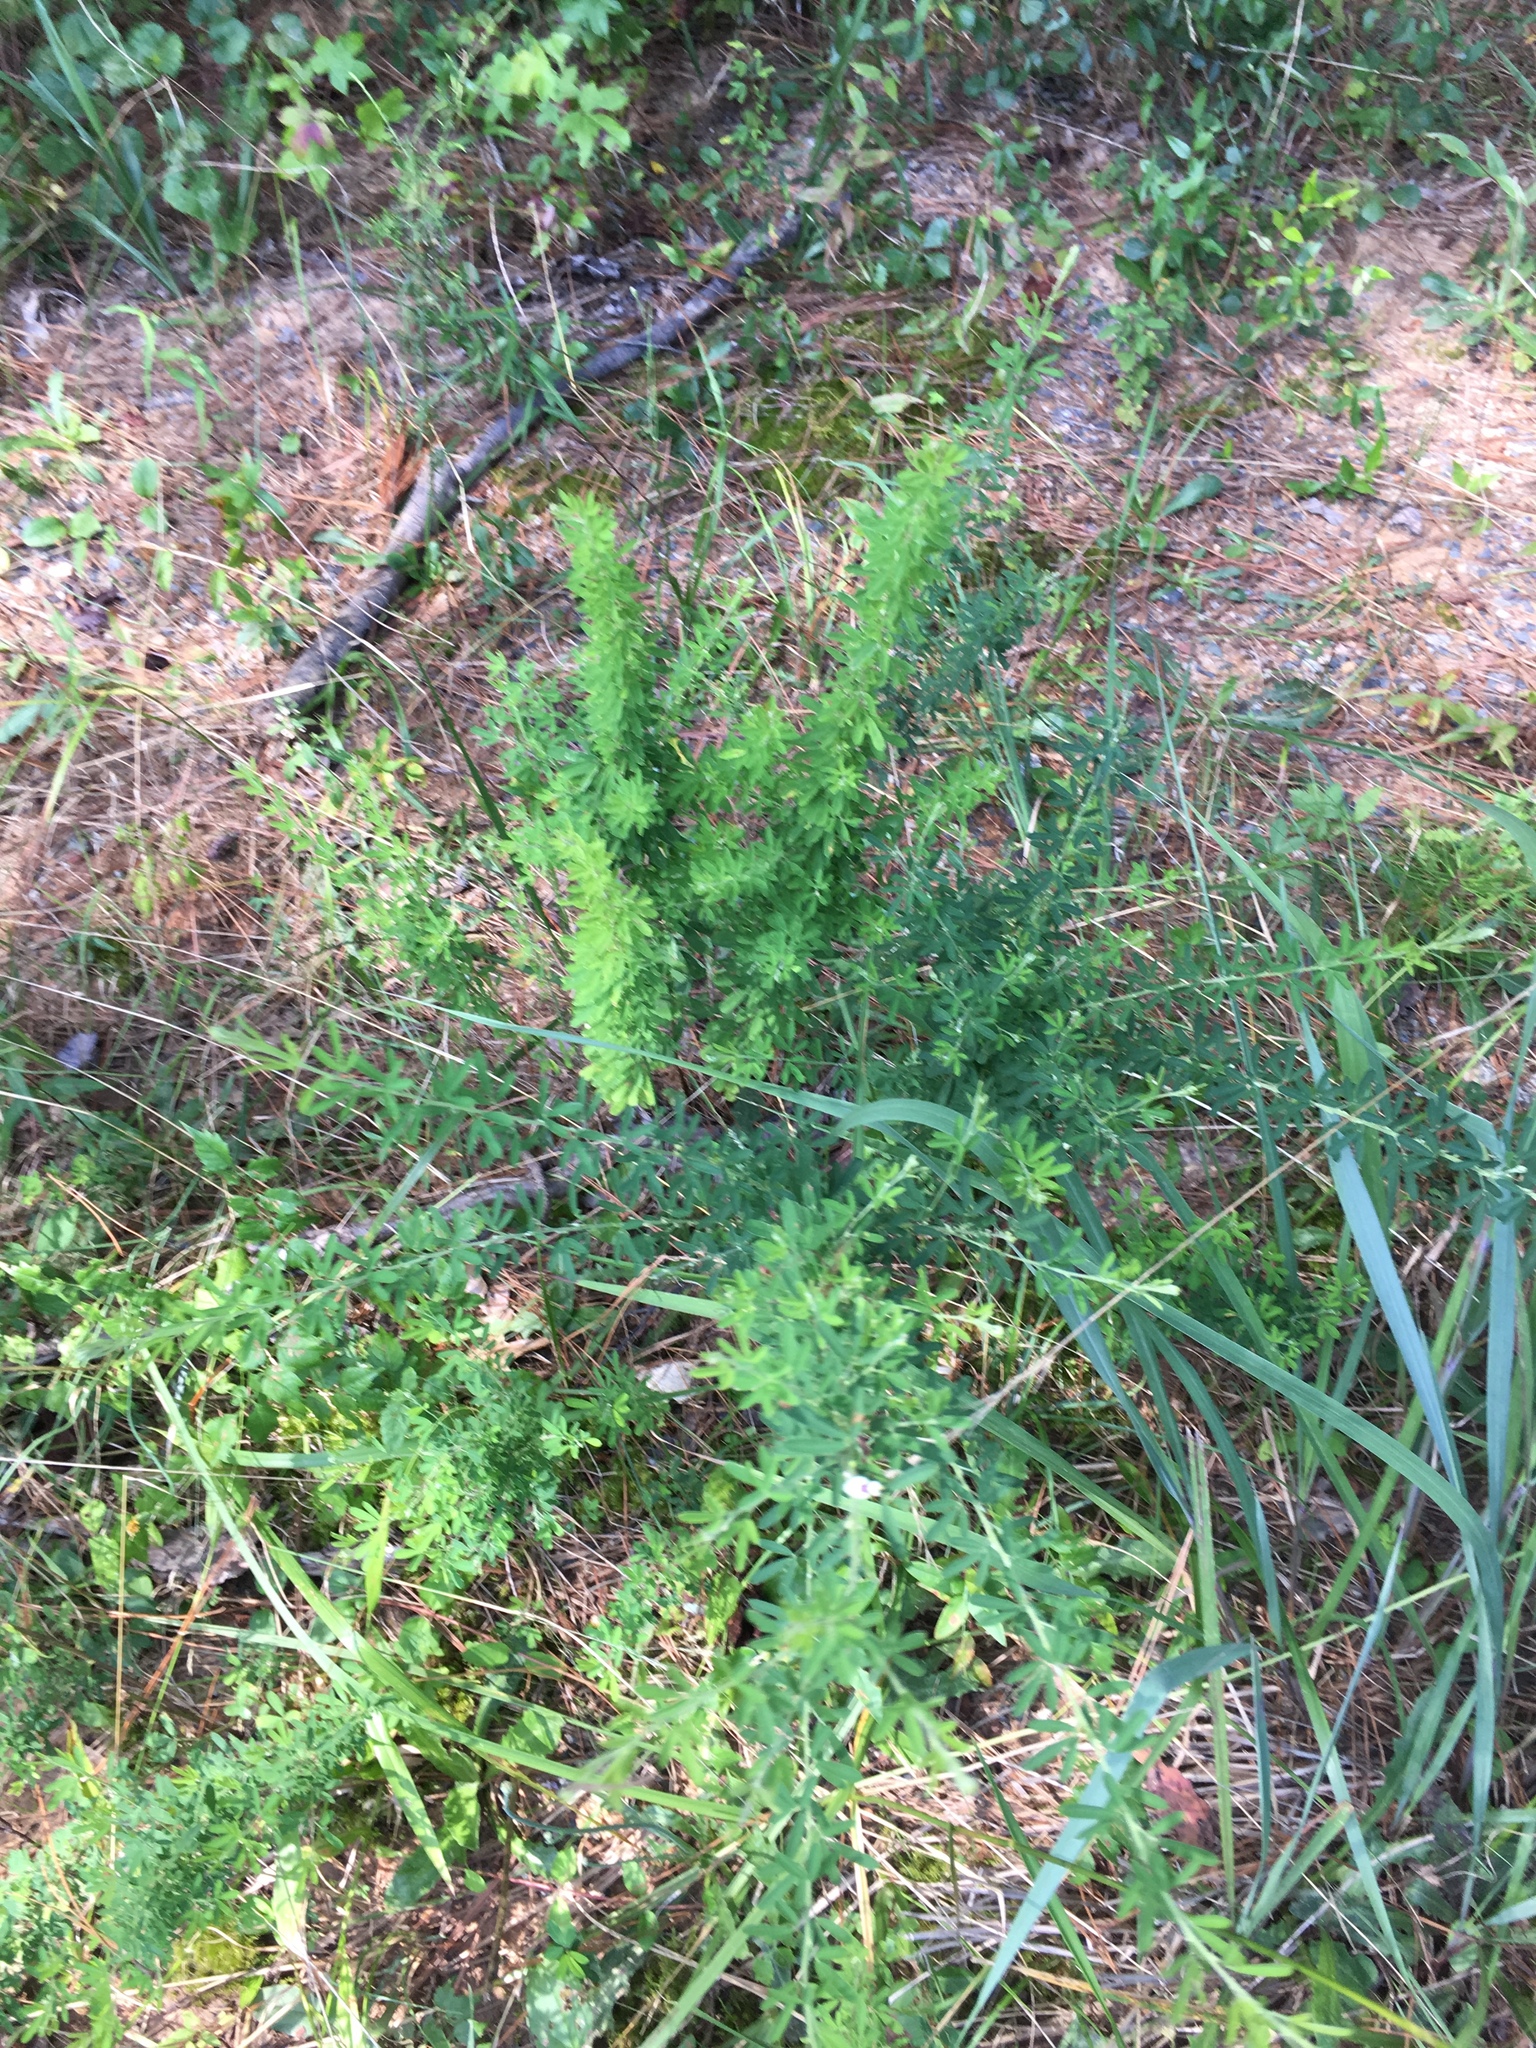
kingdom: Plantae
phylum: Tracheophyta
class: Magnoliopsida
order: Fabales
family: Fabaceae
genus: Lespedeza
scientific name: Lespedeza cuneata
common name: Chinese bush-clover
